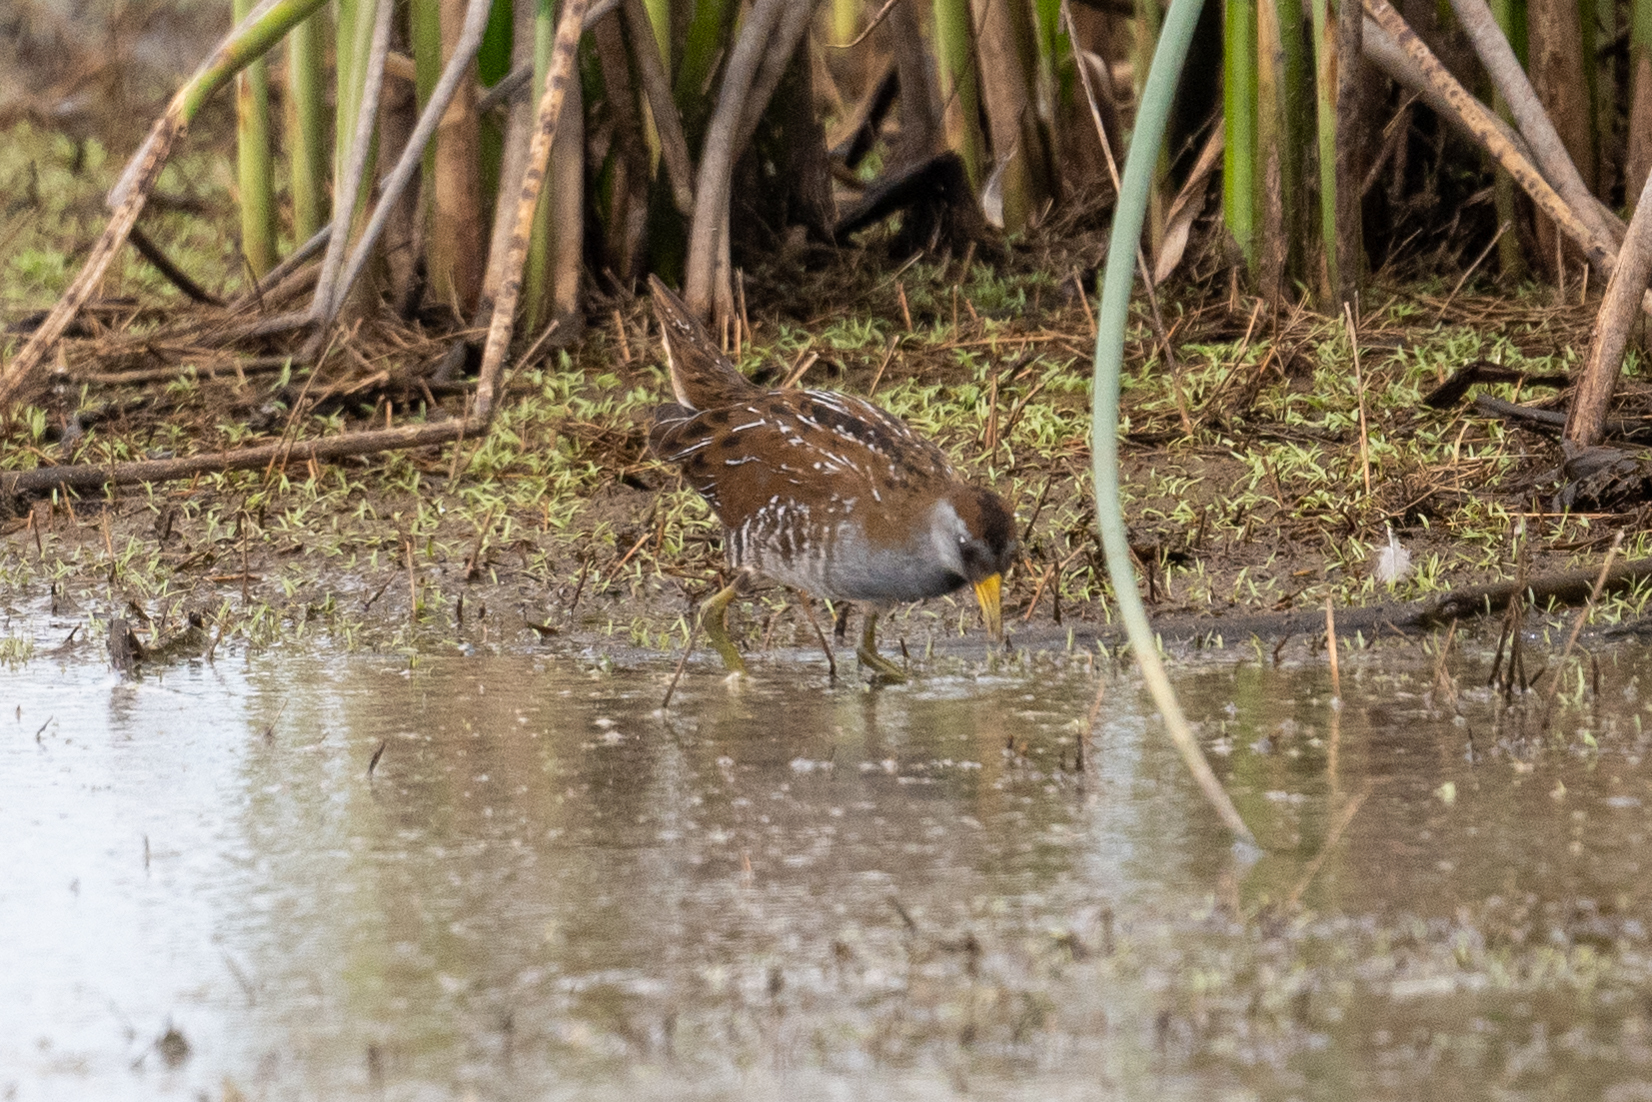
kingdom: Animalia
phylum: Chordata
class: Aves
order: Gruiformes
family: Rallidae
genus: Porzana
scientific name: Porzana carolina
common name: Sora
